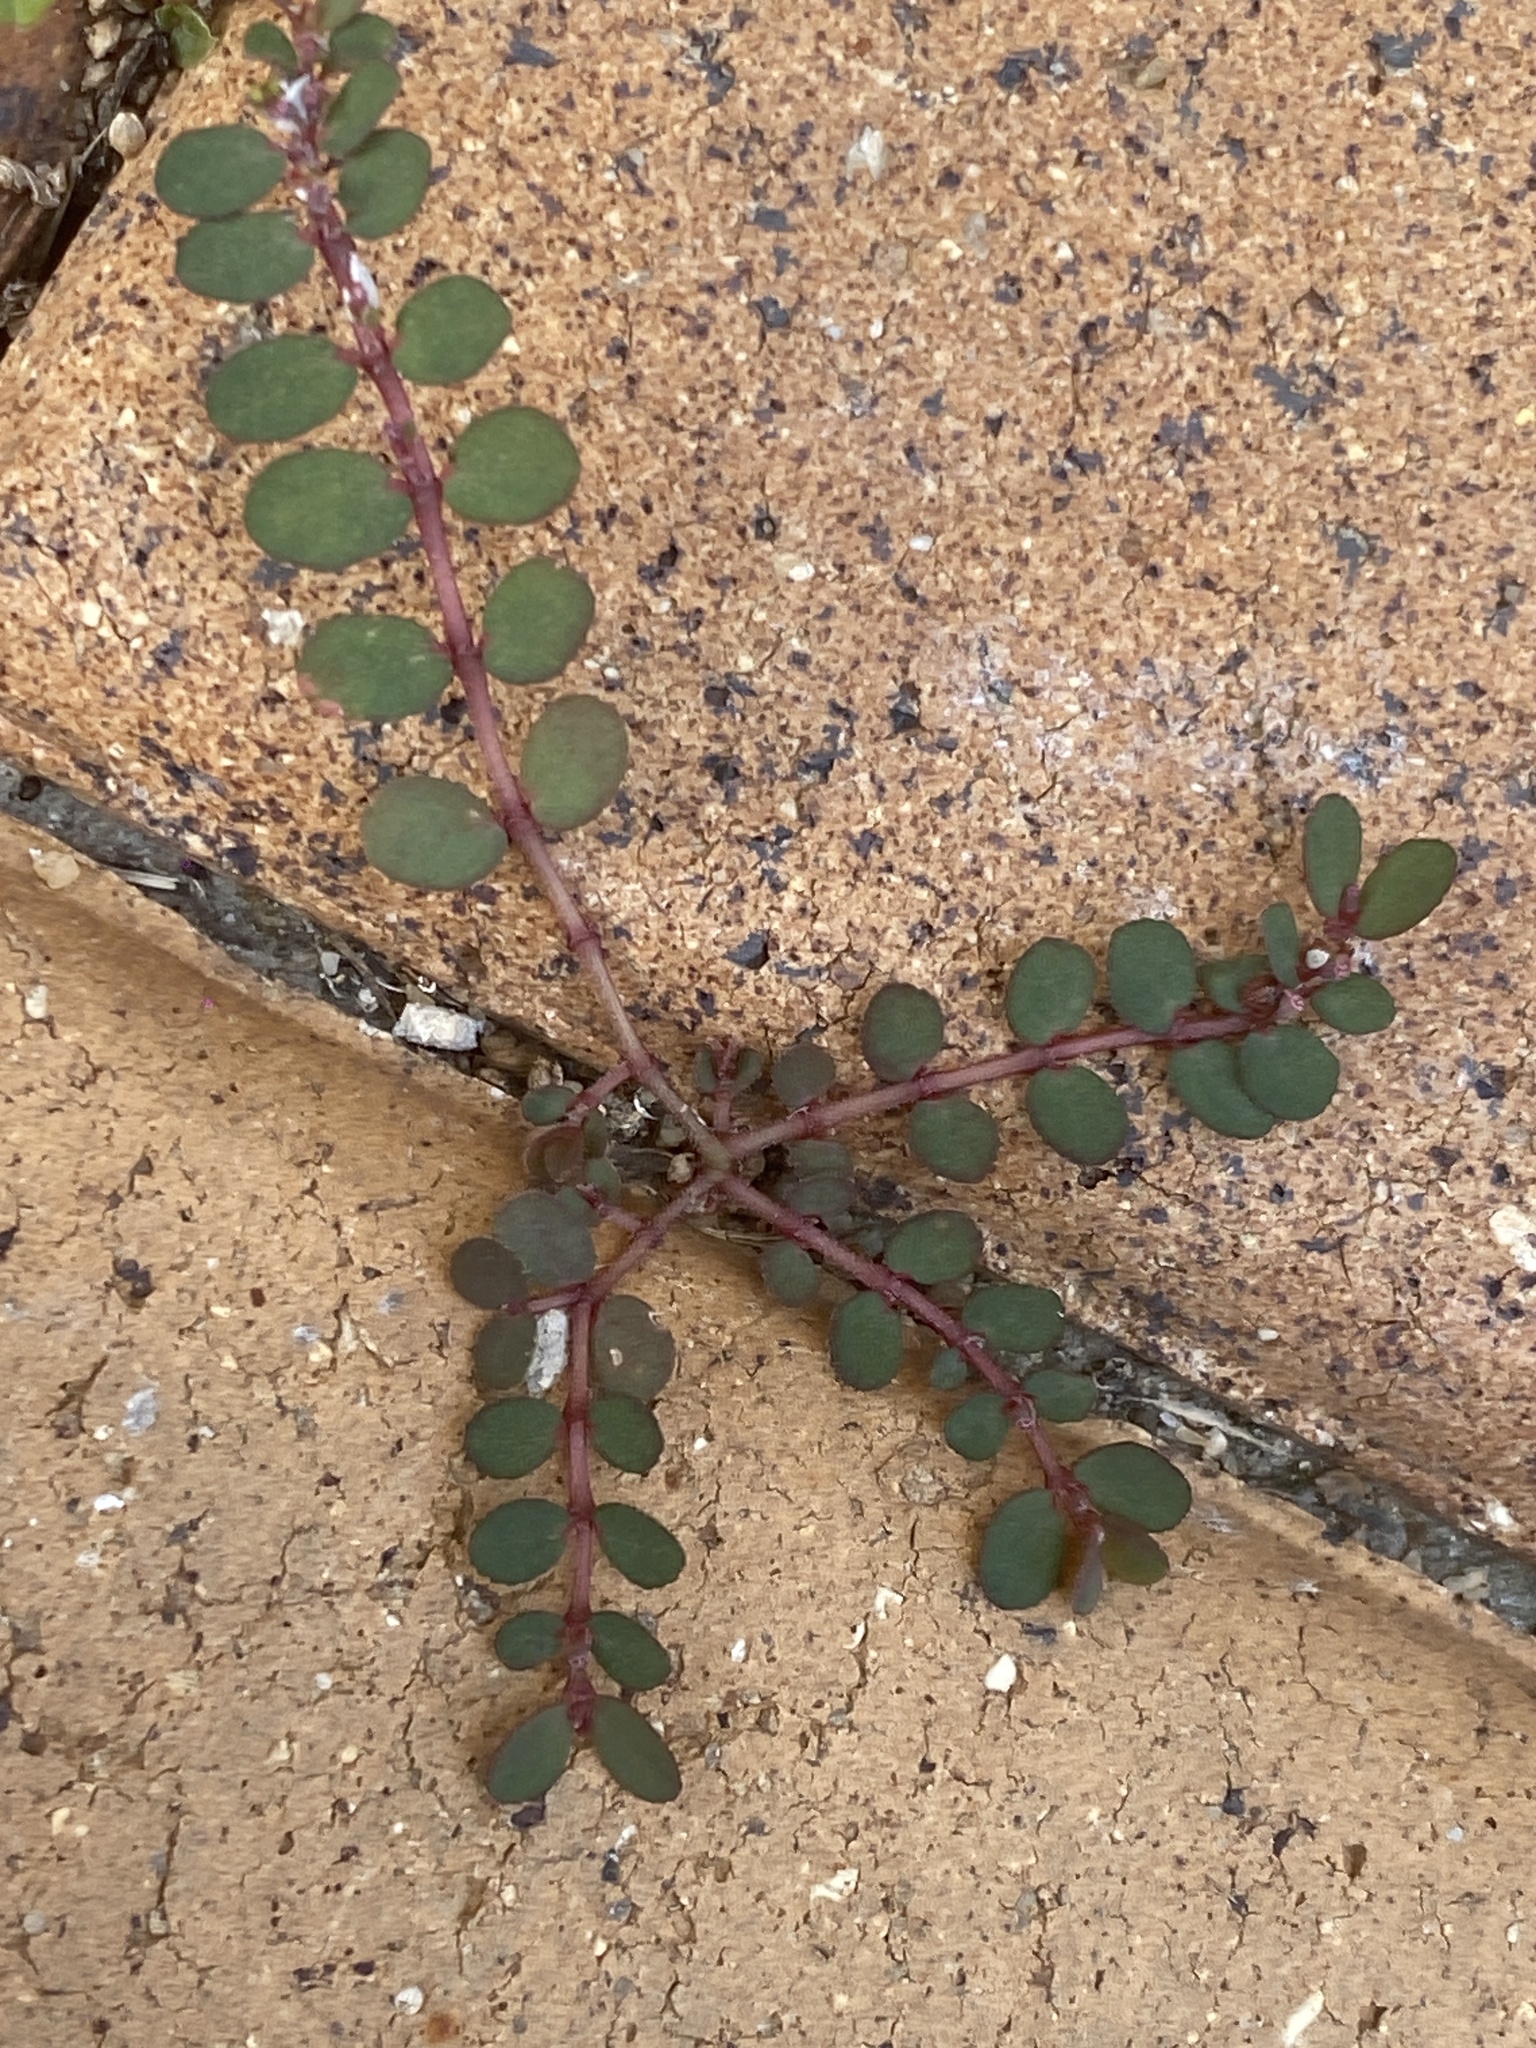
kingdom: Plantae
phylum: Tracheophyta
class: Magnoliopsida
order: Malpighiales
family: Euphorbiaceae
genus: Euphorbia
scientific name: Euphorbia prostrata
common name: Prostrate sandmat
